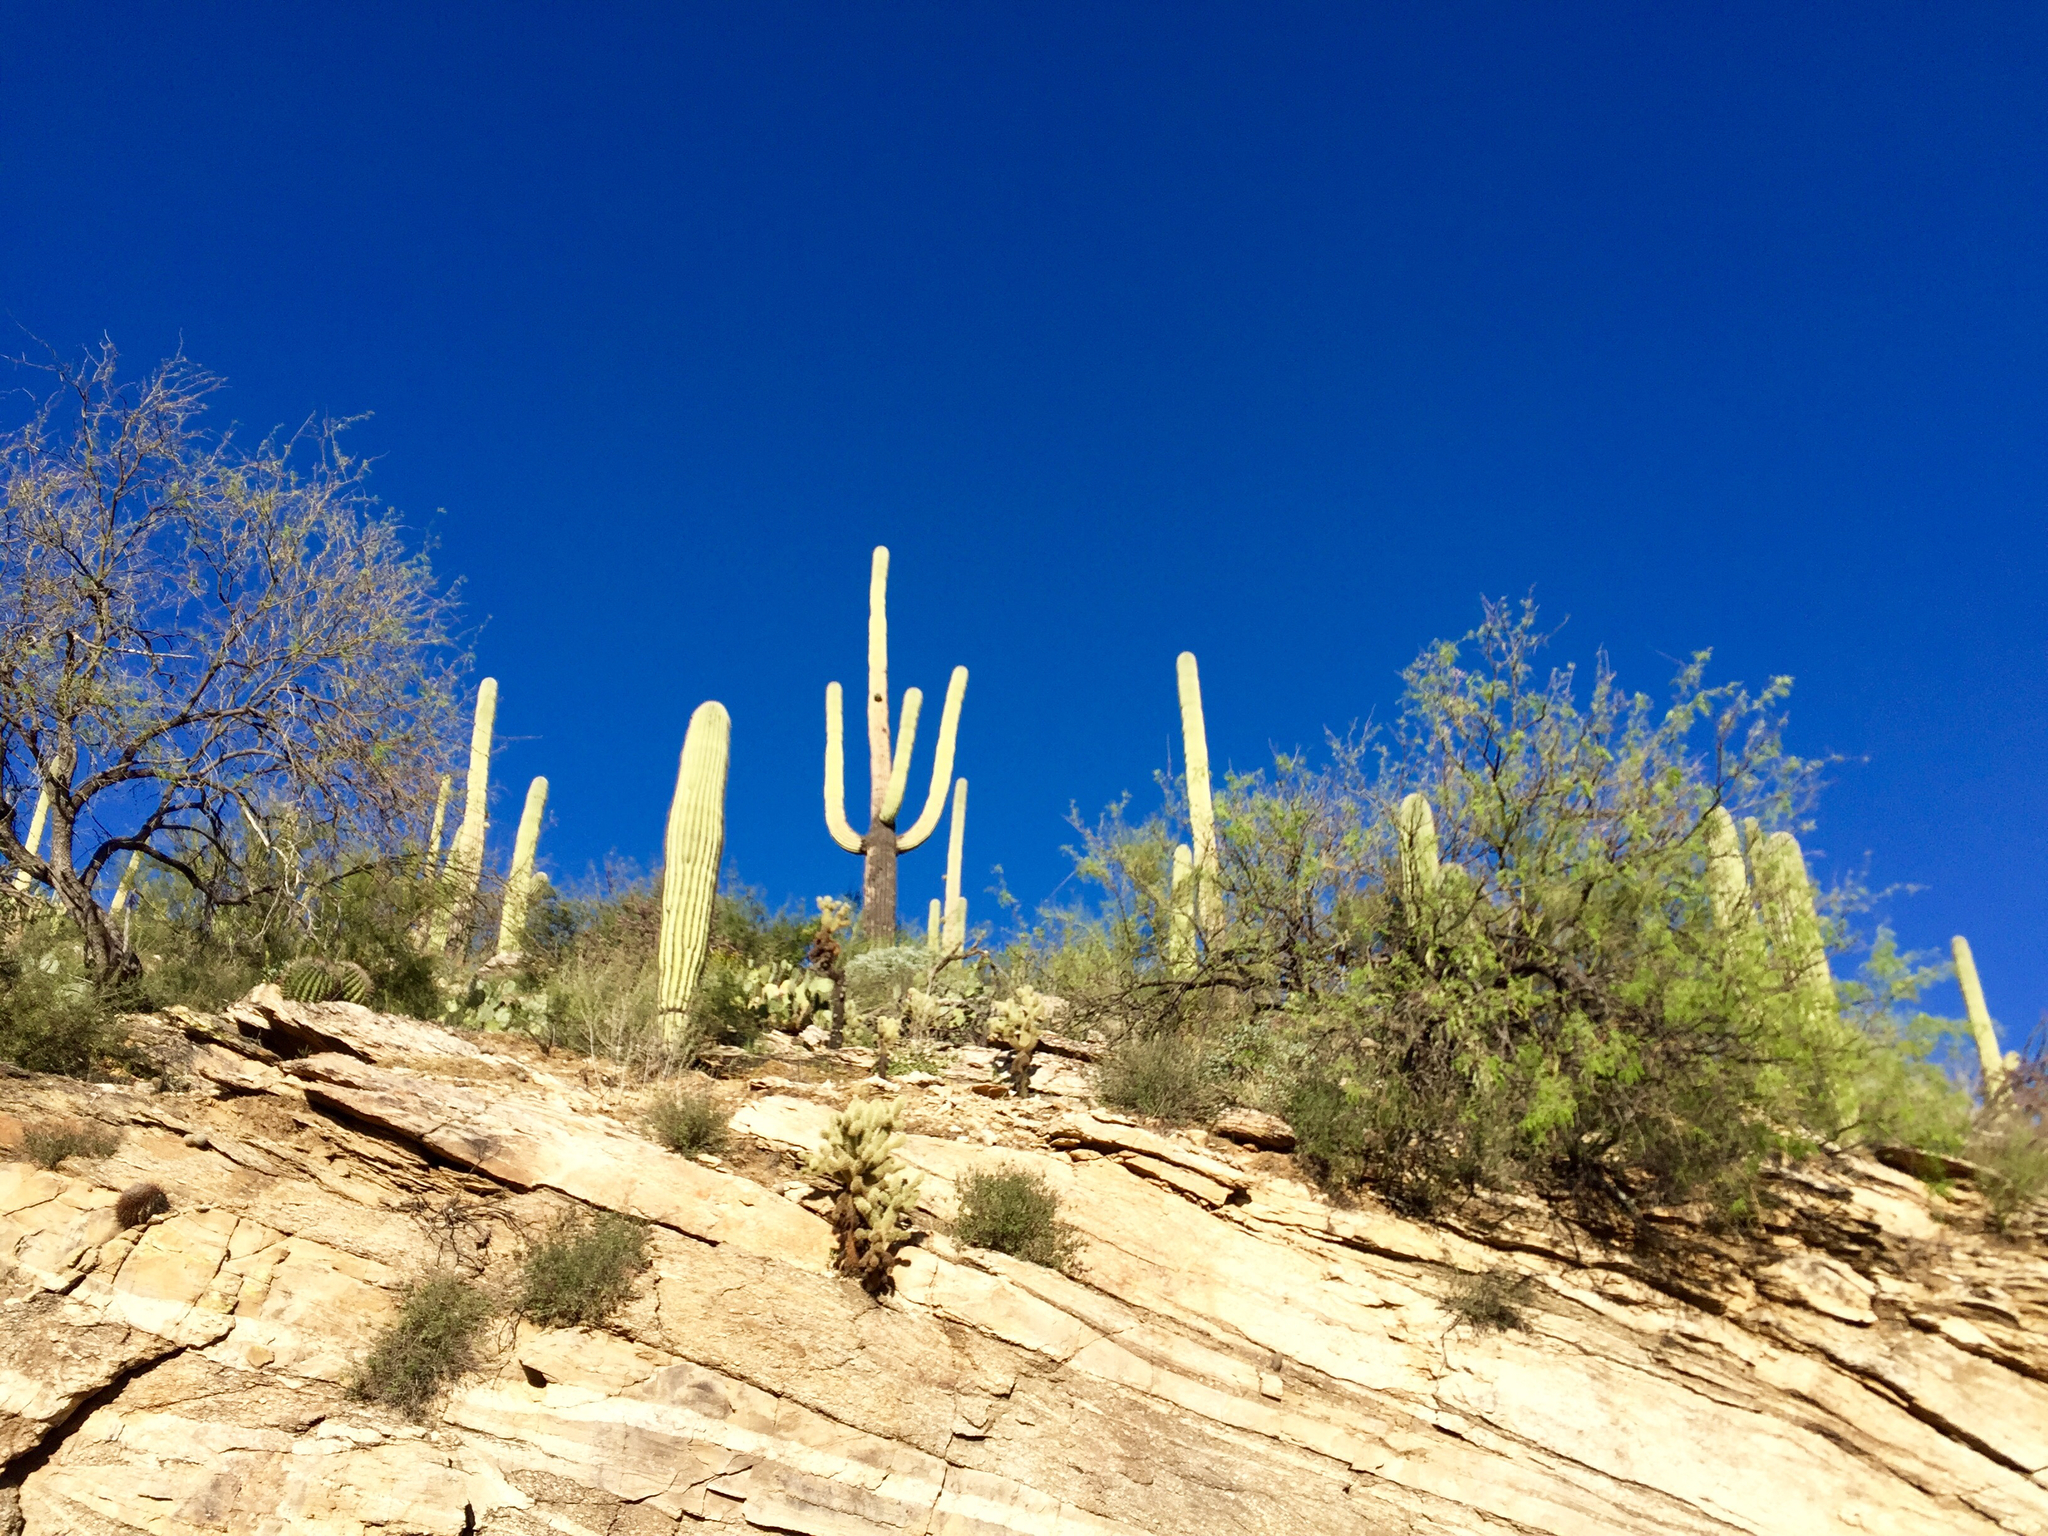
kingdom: Plantae
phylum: Tracheophyta
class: Magnoliopsida
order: Caryophyllales
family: Cactaceae
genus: Carnegiea
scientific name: Carnegiea gigantea
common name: Saguaro
